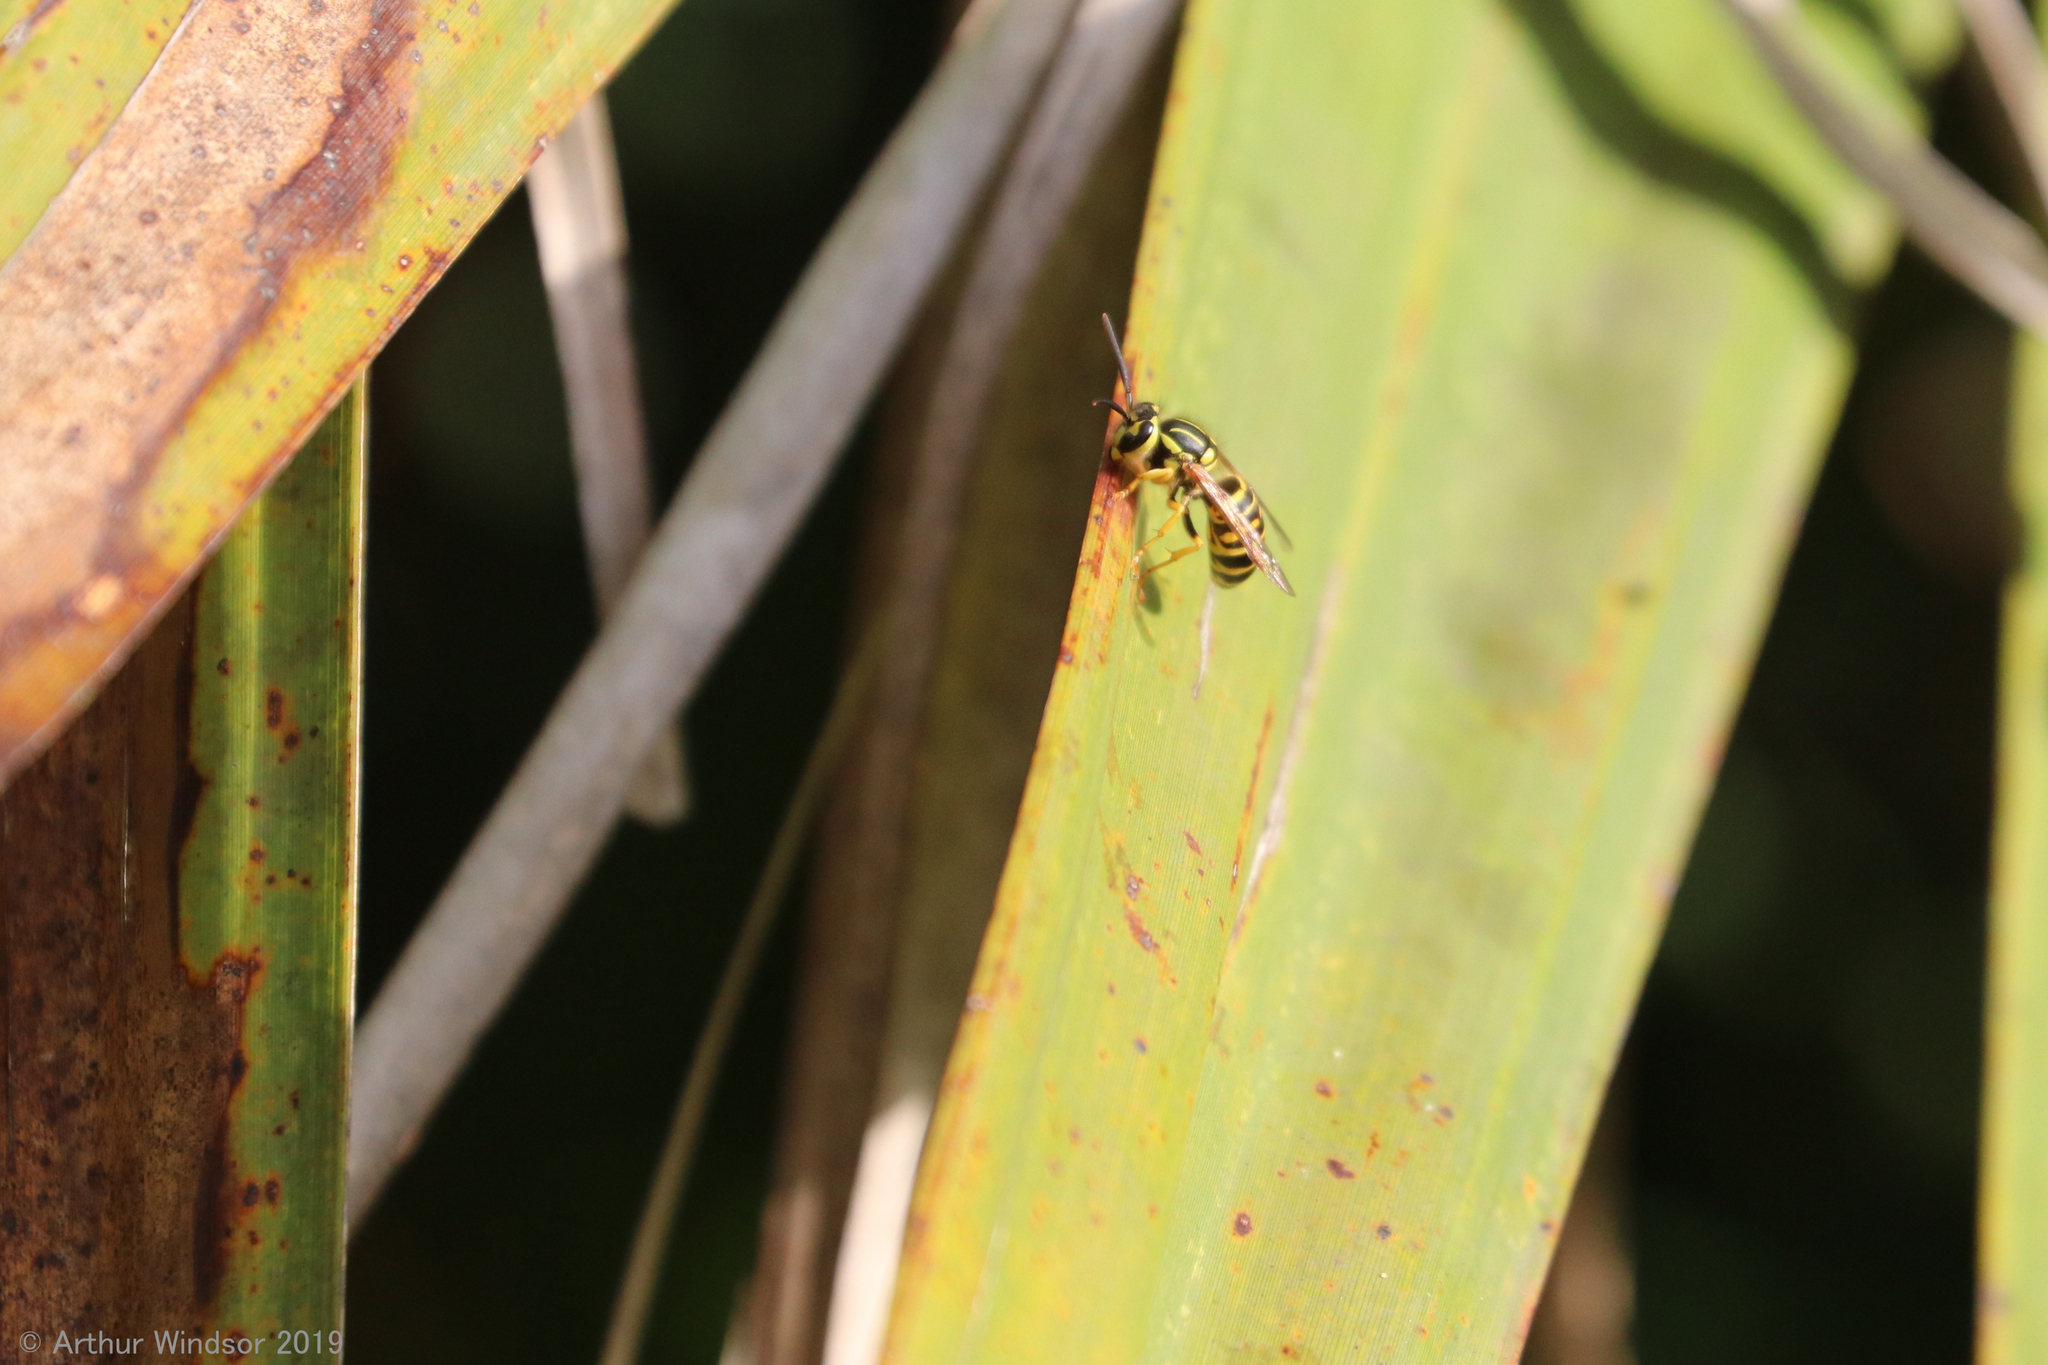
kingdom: Animalia
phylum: Arthropoda
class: Insecta
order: Hymenoptera
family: Vespidae
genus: Vespula
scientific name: Vespula squamosa
